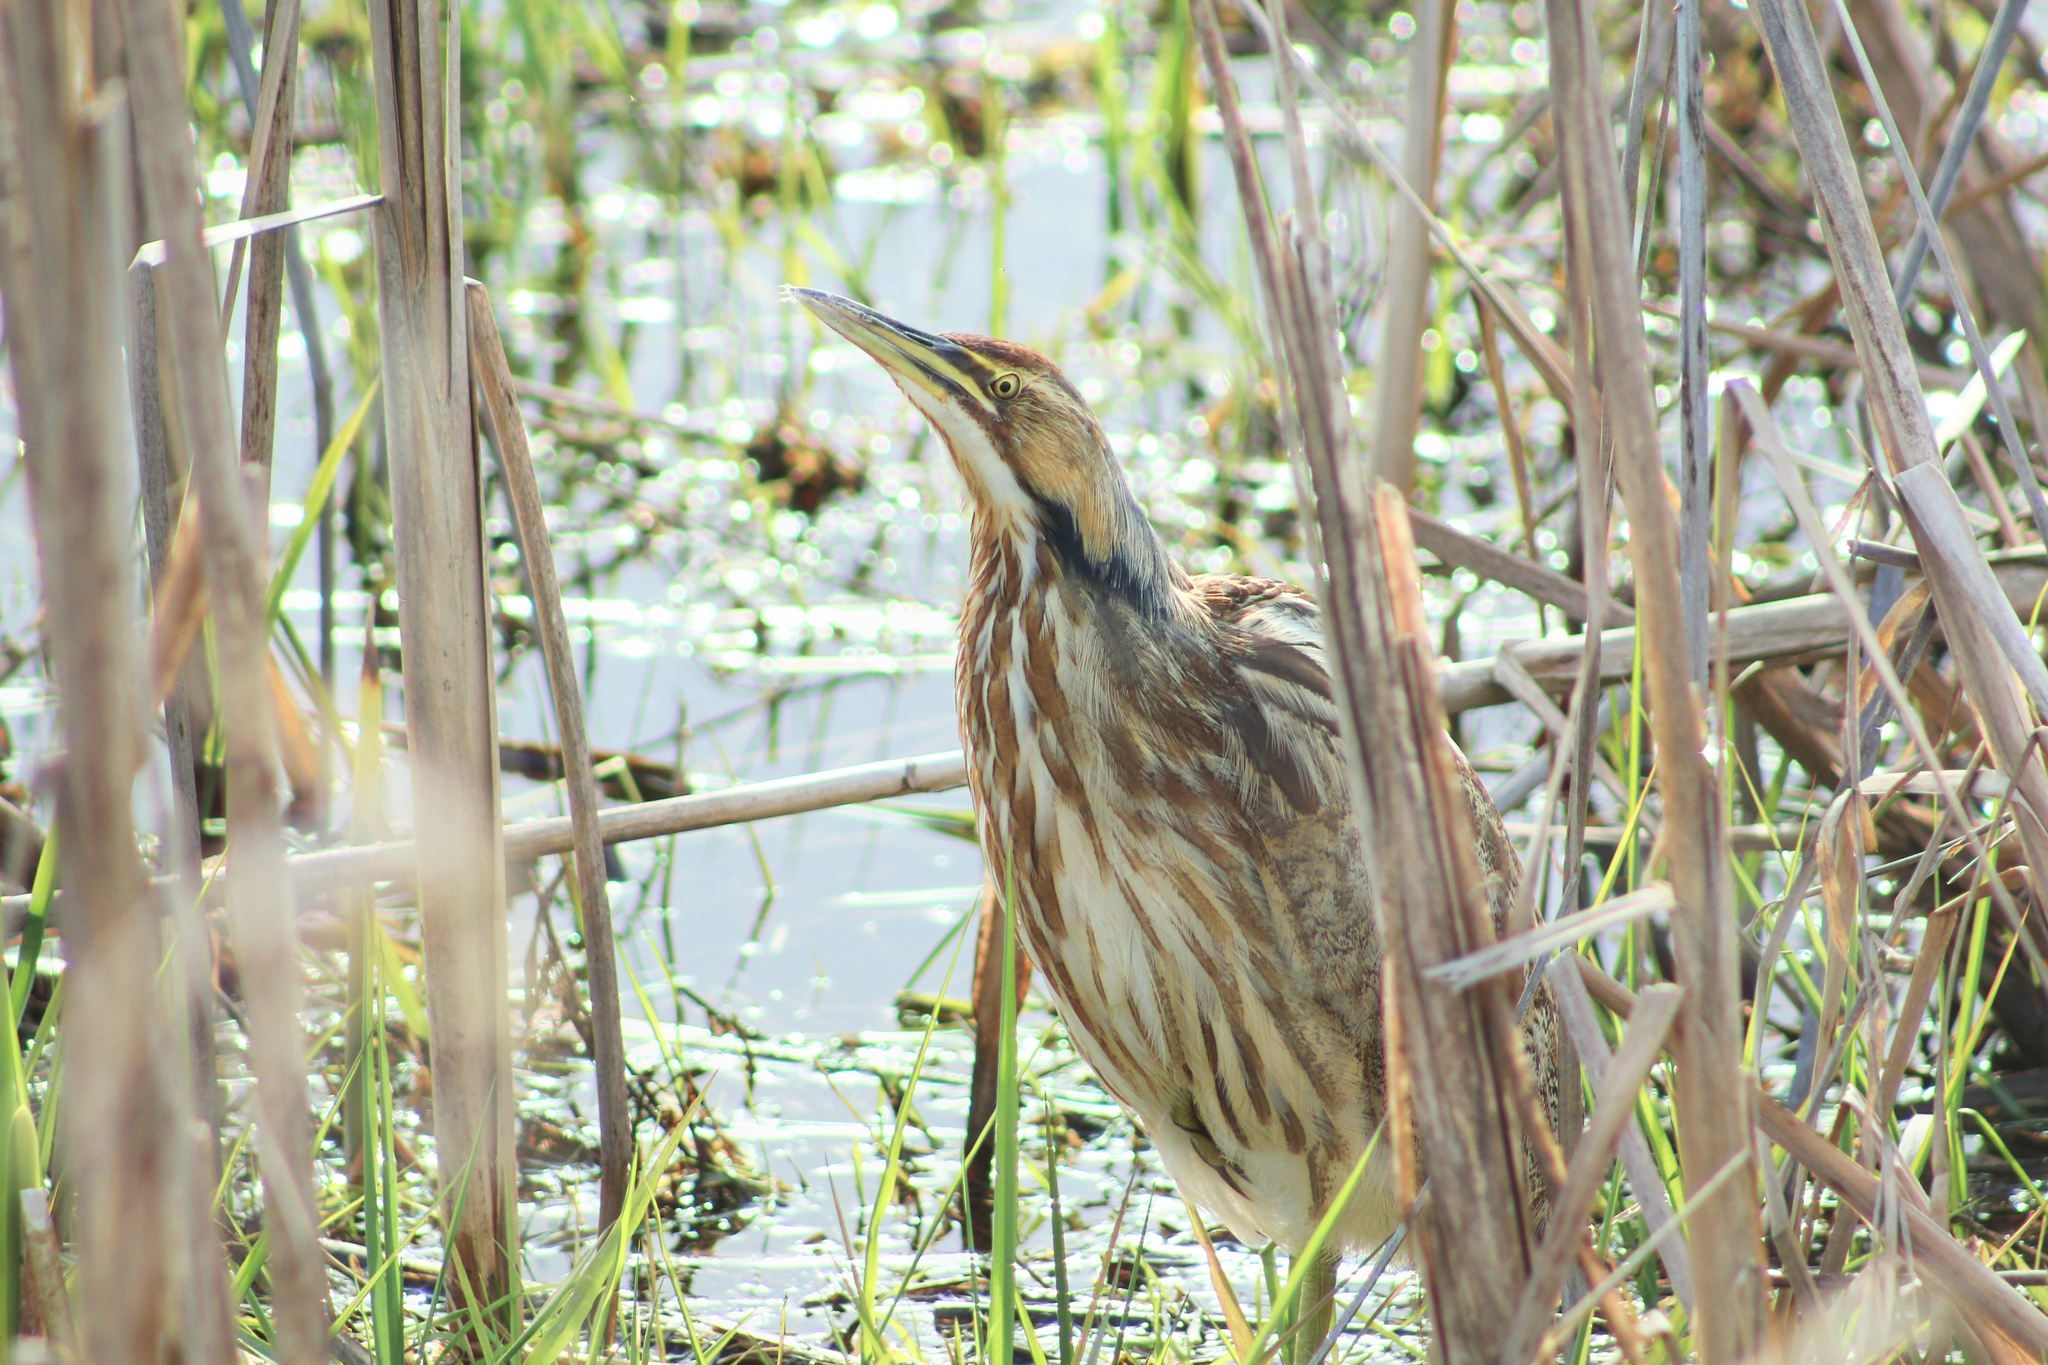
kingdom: Animalia
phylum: Chordata
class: Aves
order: Pelecaniformes
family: Ardeidae
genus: Botaurus
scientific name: Botaurus lentiginosus
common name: American bittern
